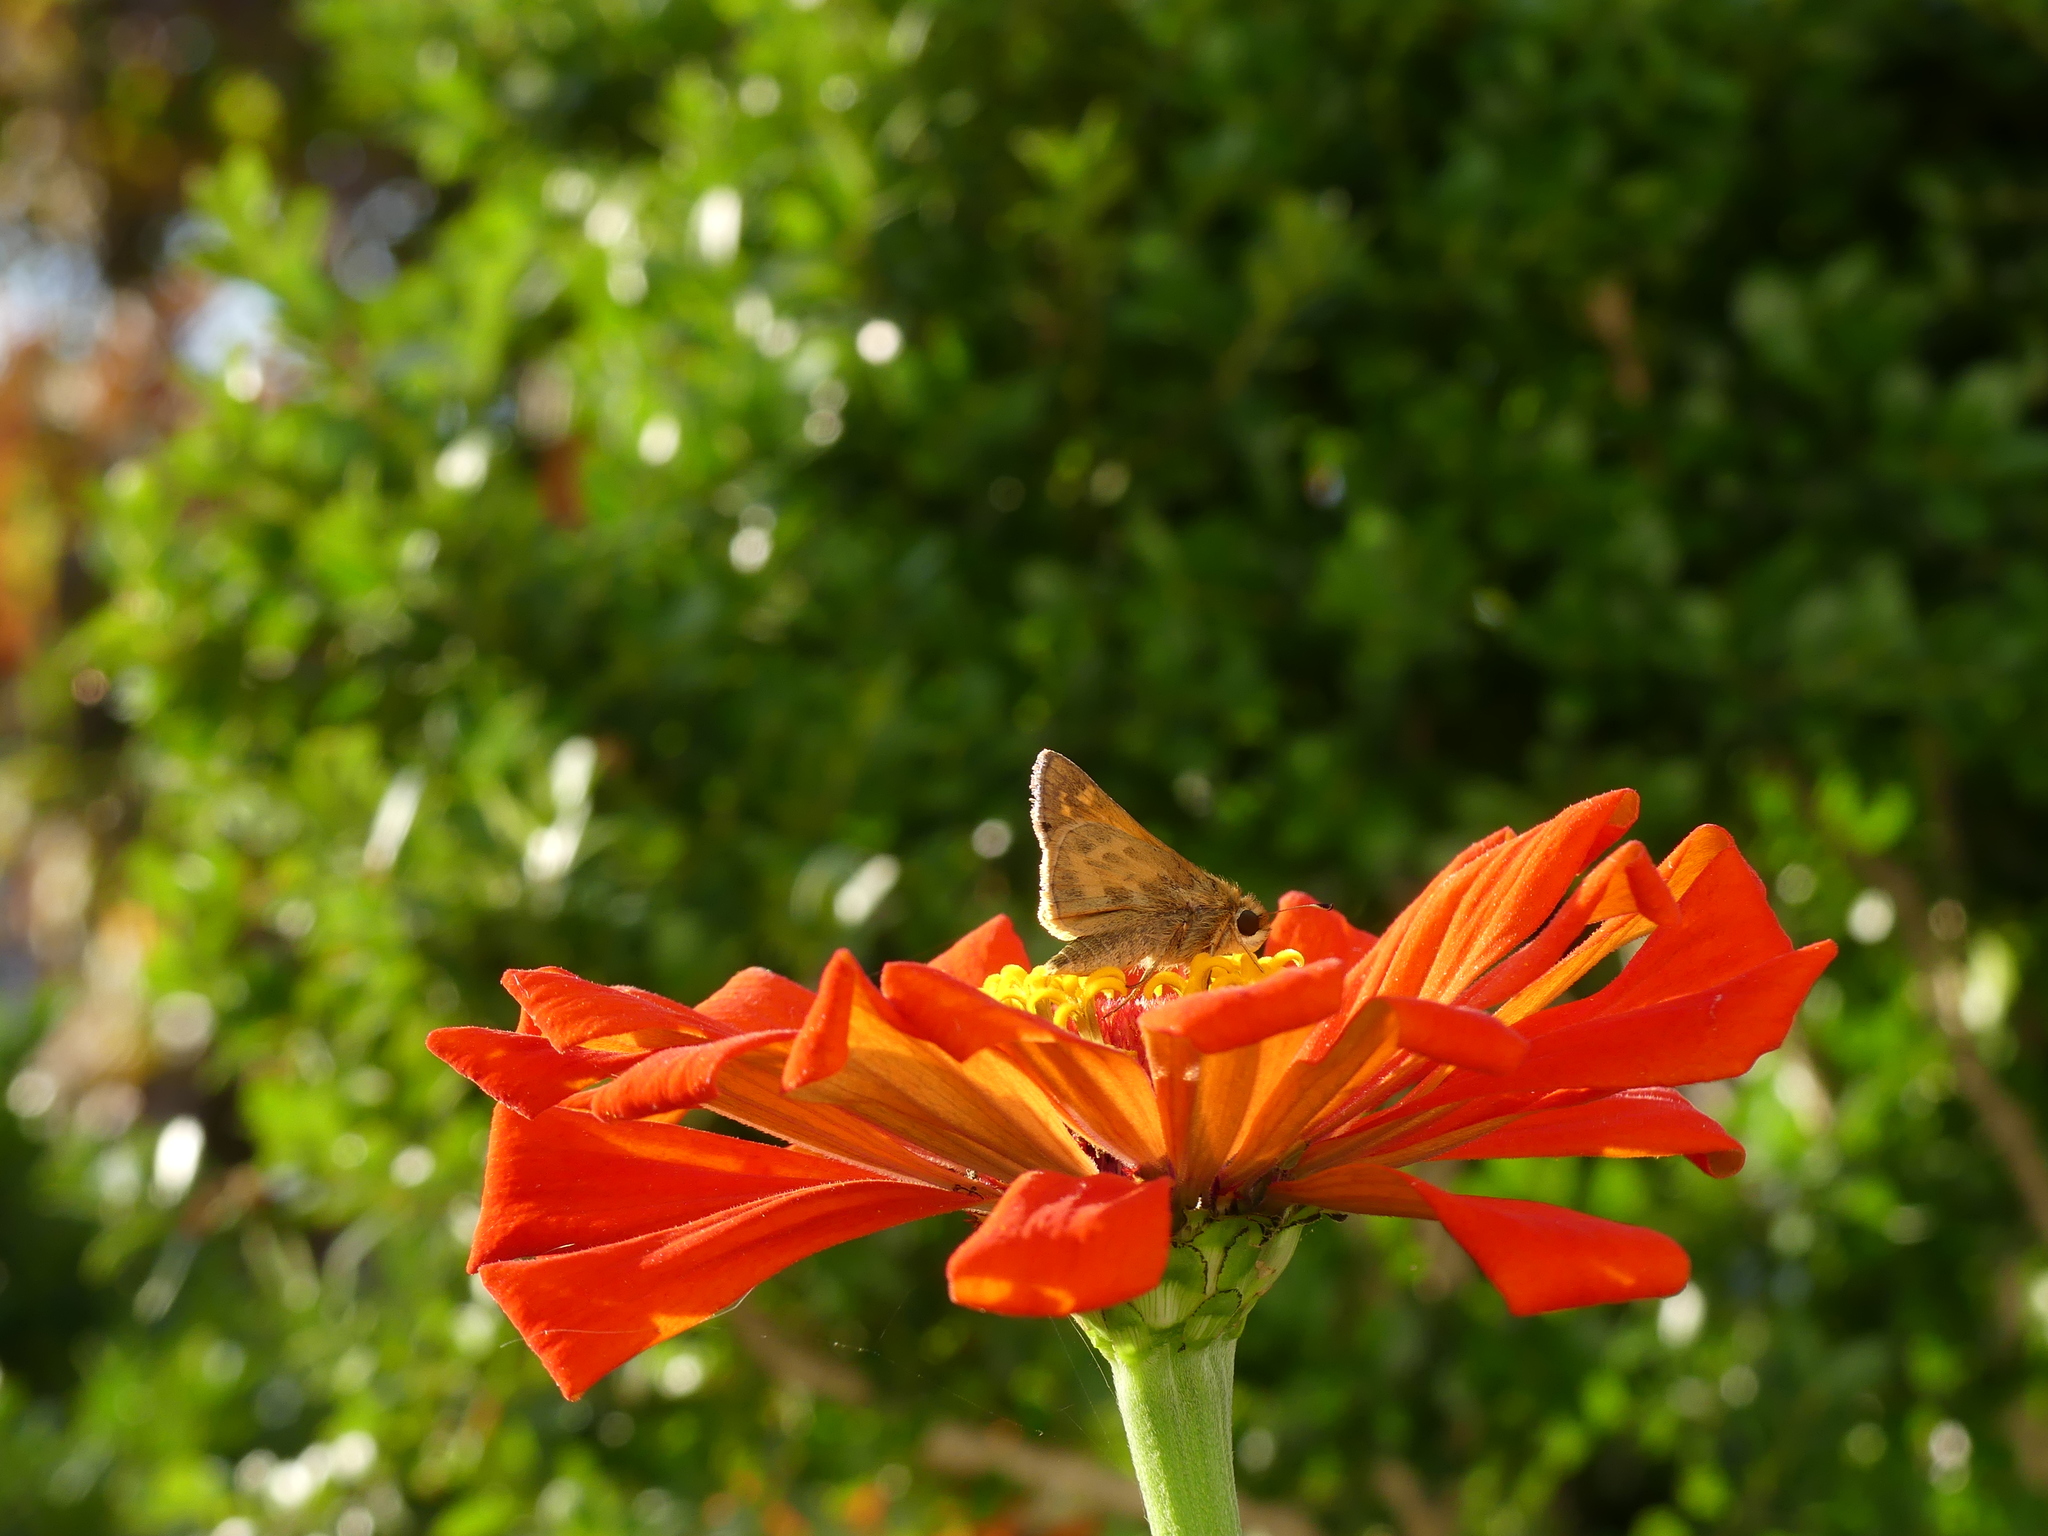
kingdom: Animalia
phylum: Arthropoda
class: Insecta
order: Lepidoptera
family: Hesperiidae
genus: Atalopedes
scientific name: Atalopedes
